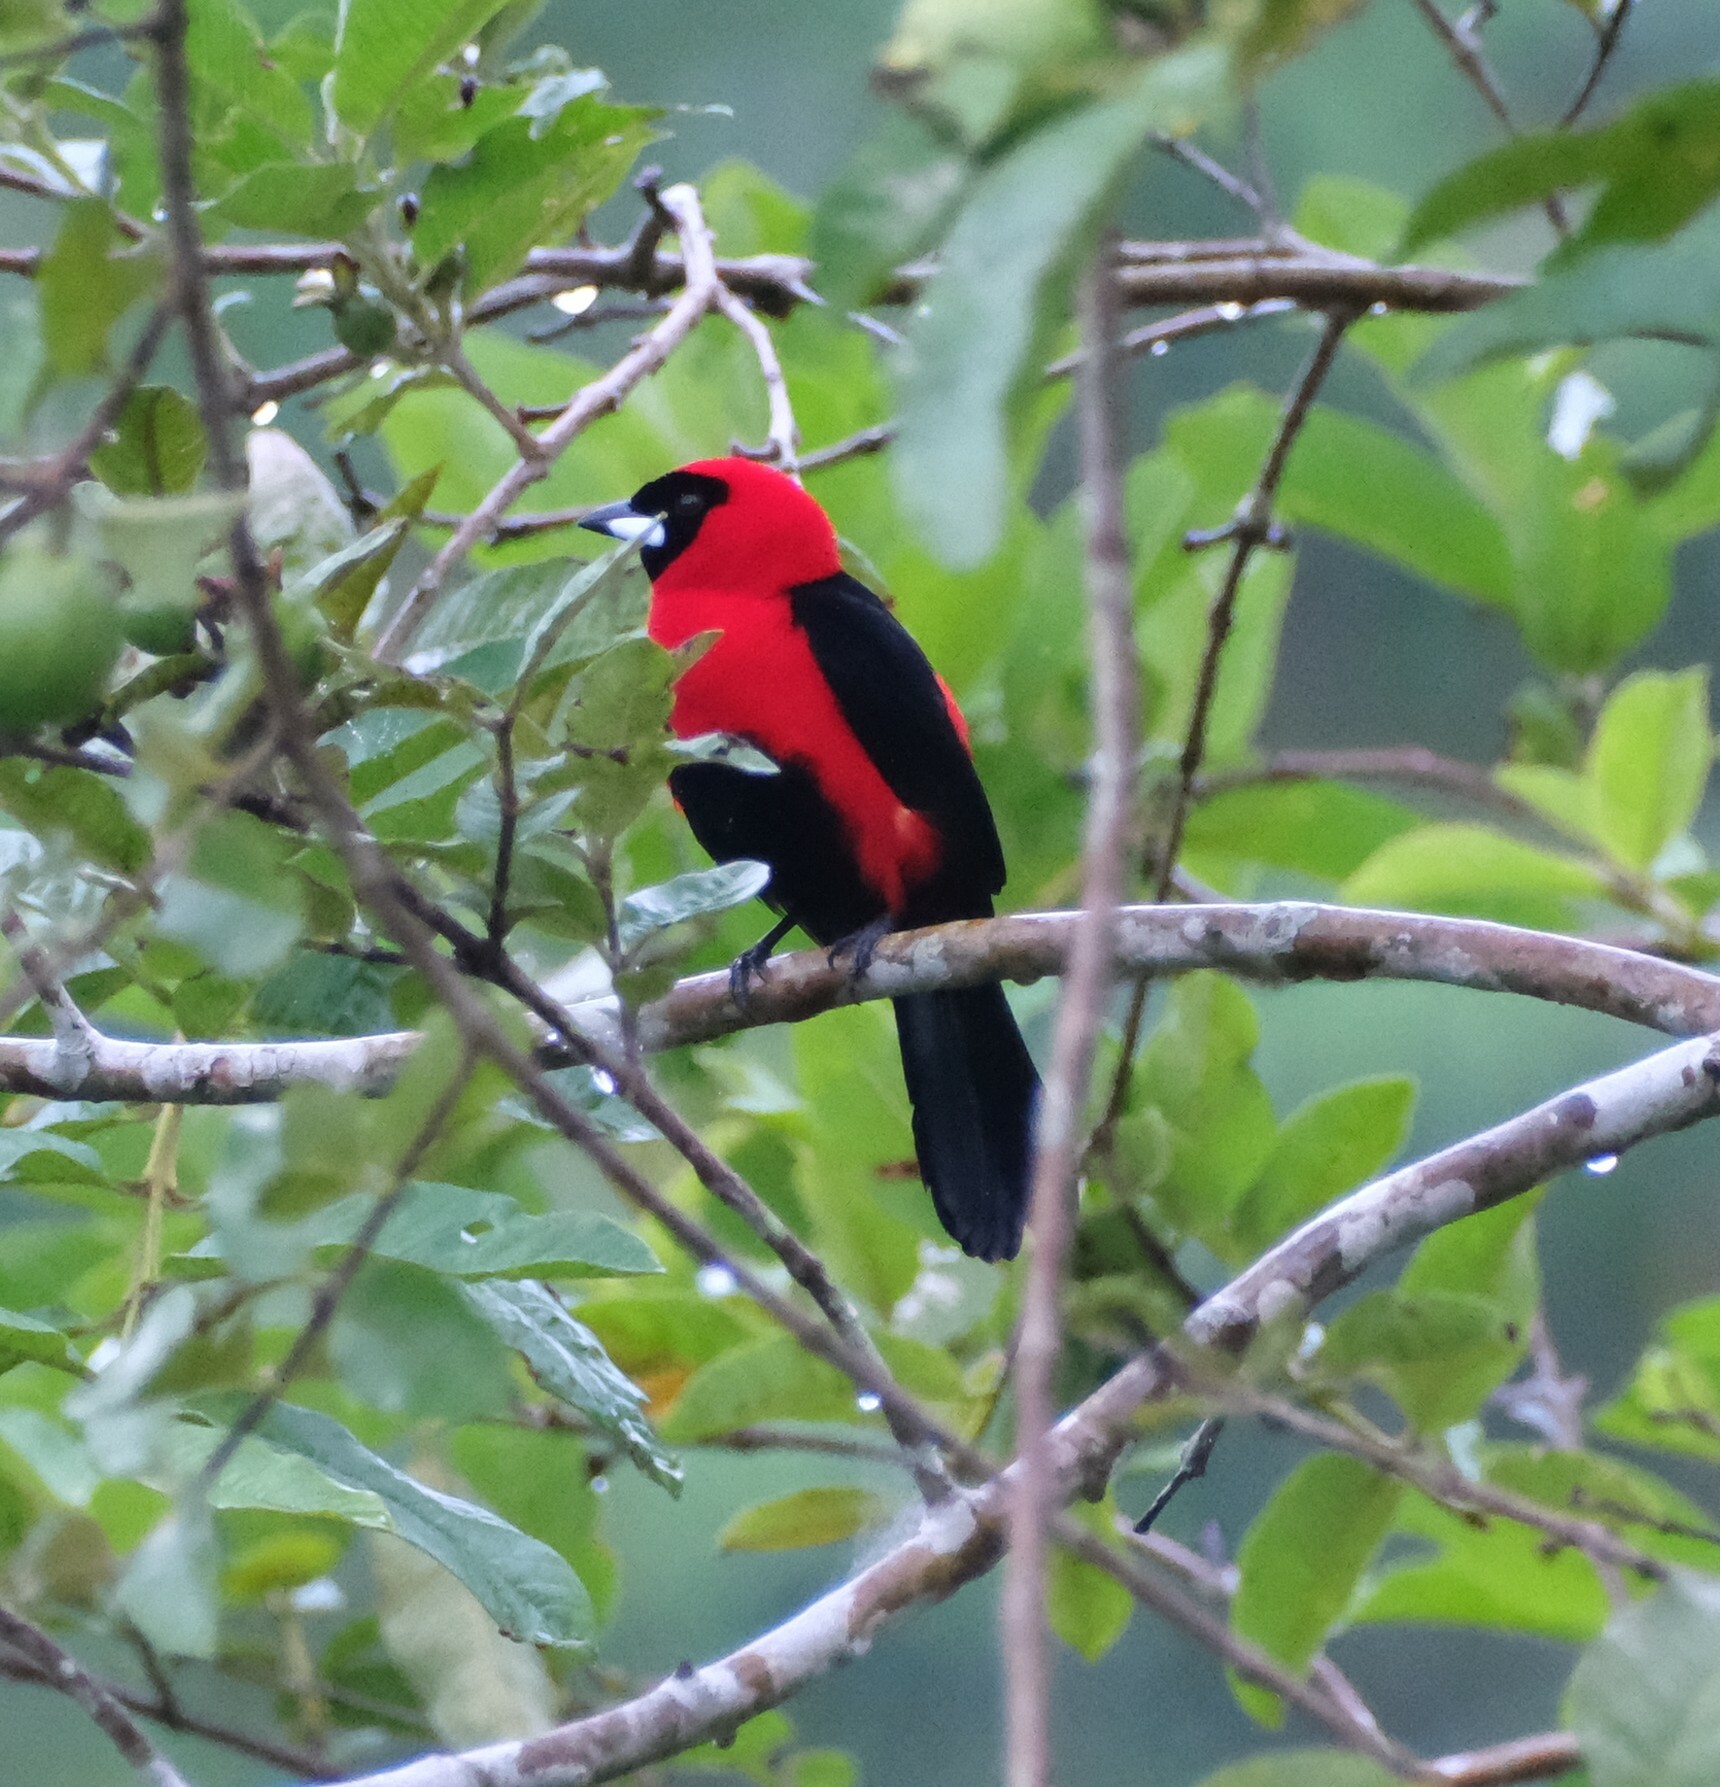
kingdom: Animalia
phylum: Chordata
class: Aves
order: Passeriformes
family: Thraupidae
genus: Ramphocelus
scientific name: Ramphocelus nigrogularis
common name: Masked crimson tanager
